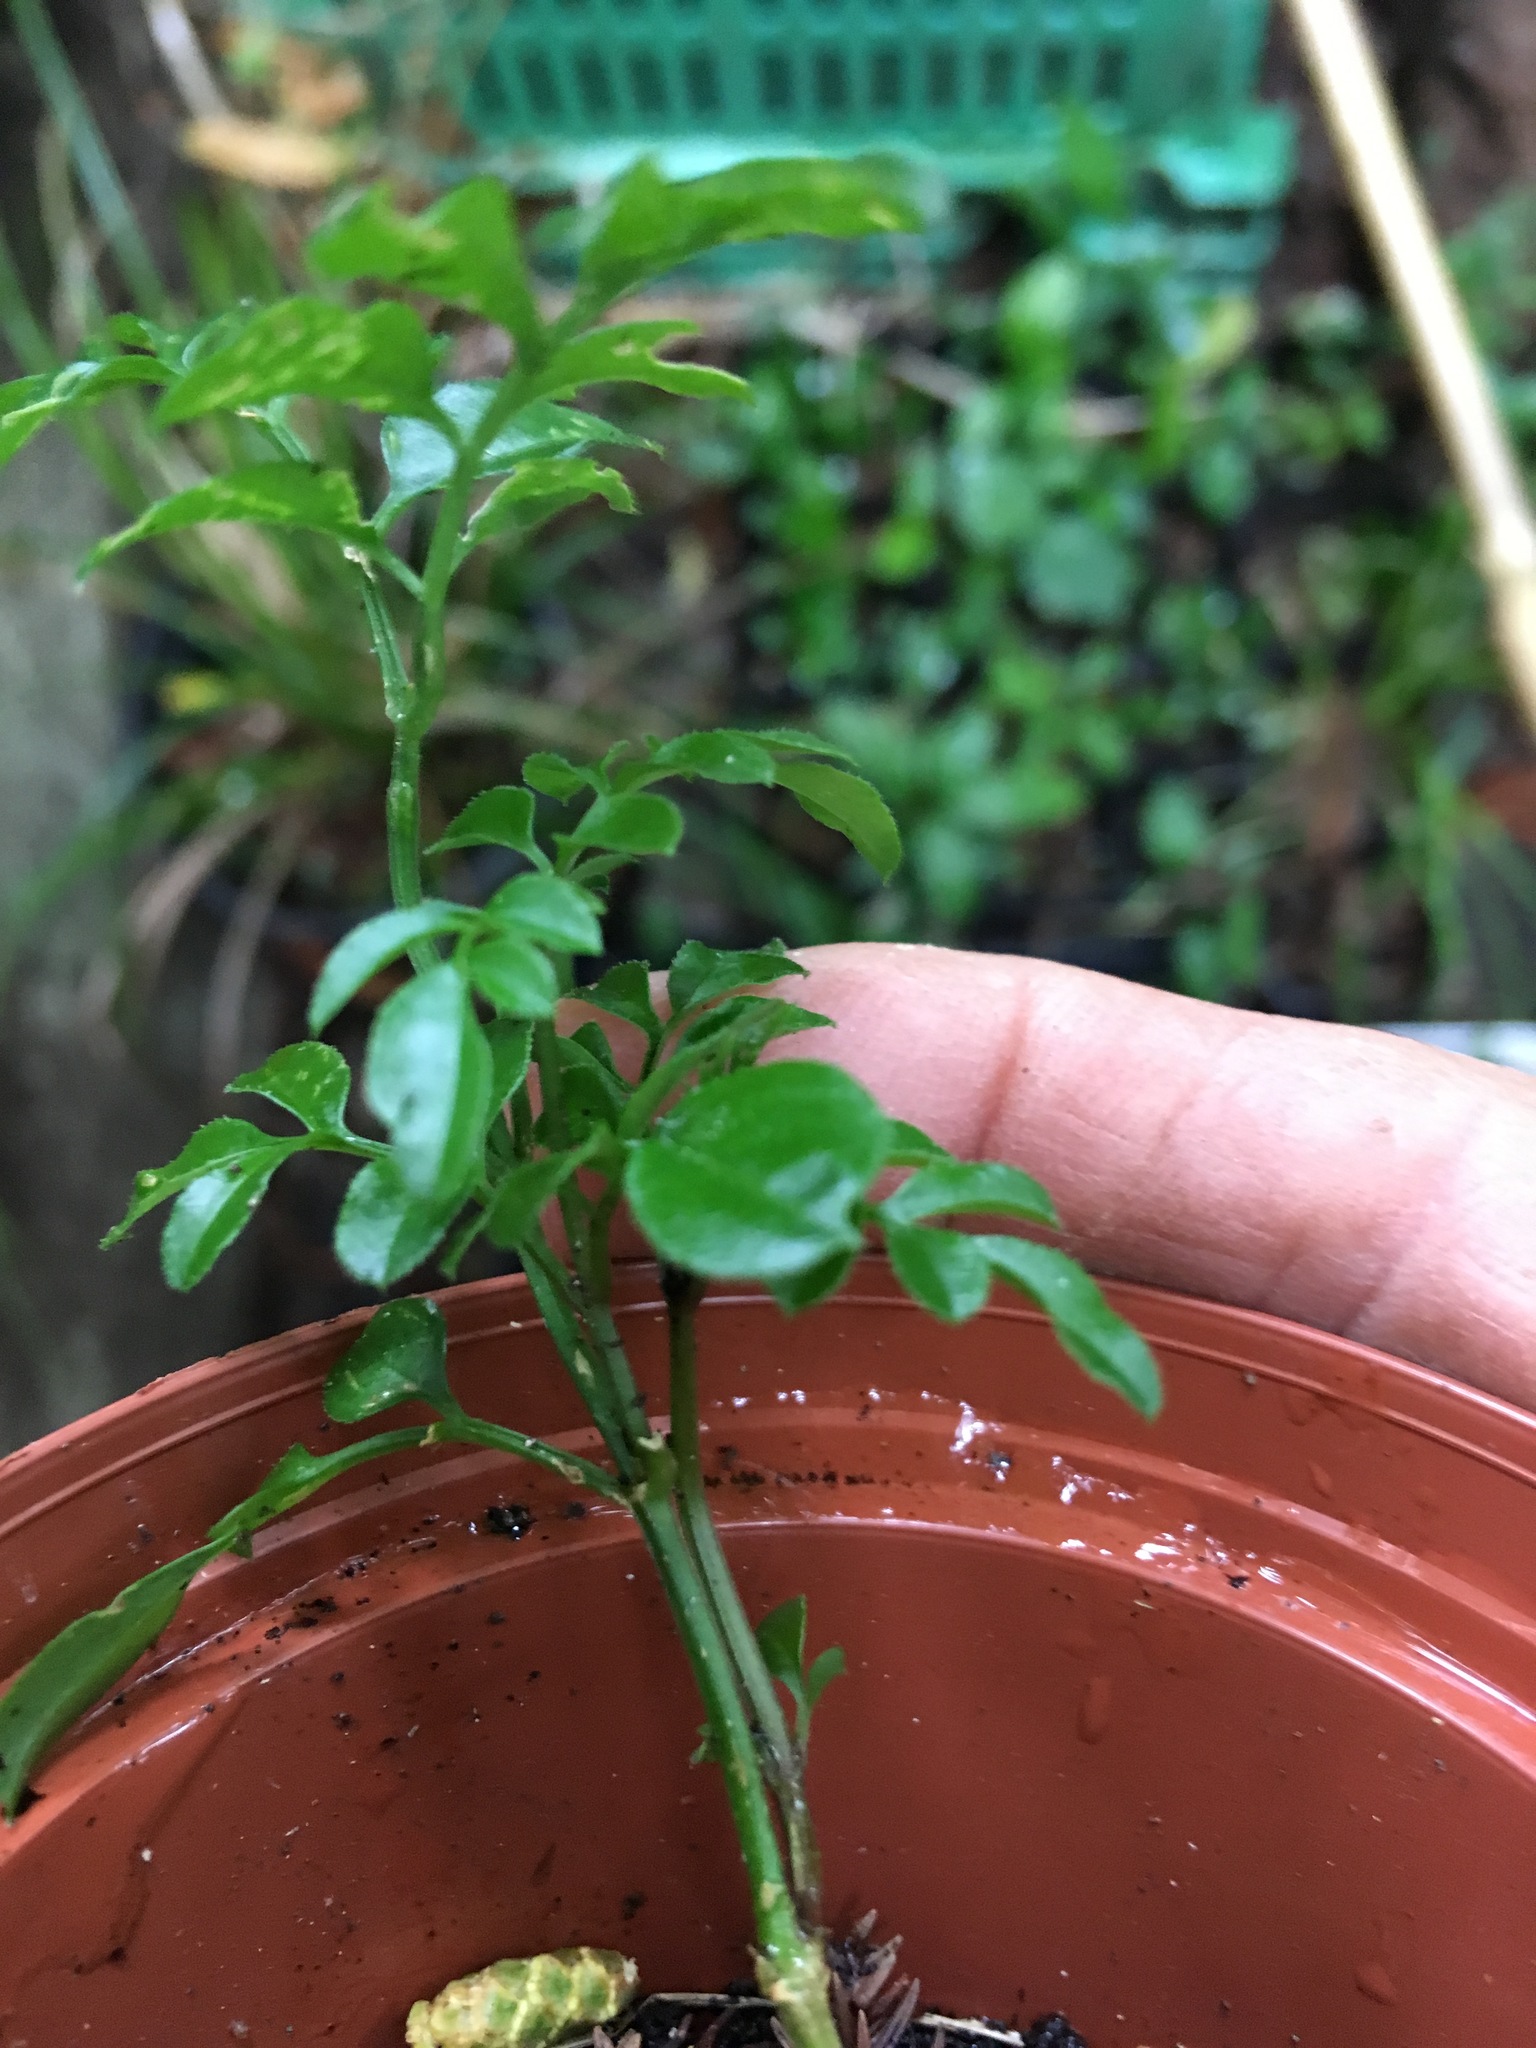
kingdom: Plantae
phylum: Tracheophyta
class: Magnoliopsida
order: Lamiales
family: Oleaceae
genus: Jasminum
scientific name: Jasminum polyanthum
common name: Pink jasmine
